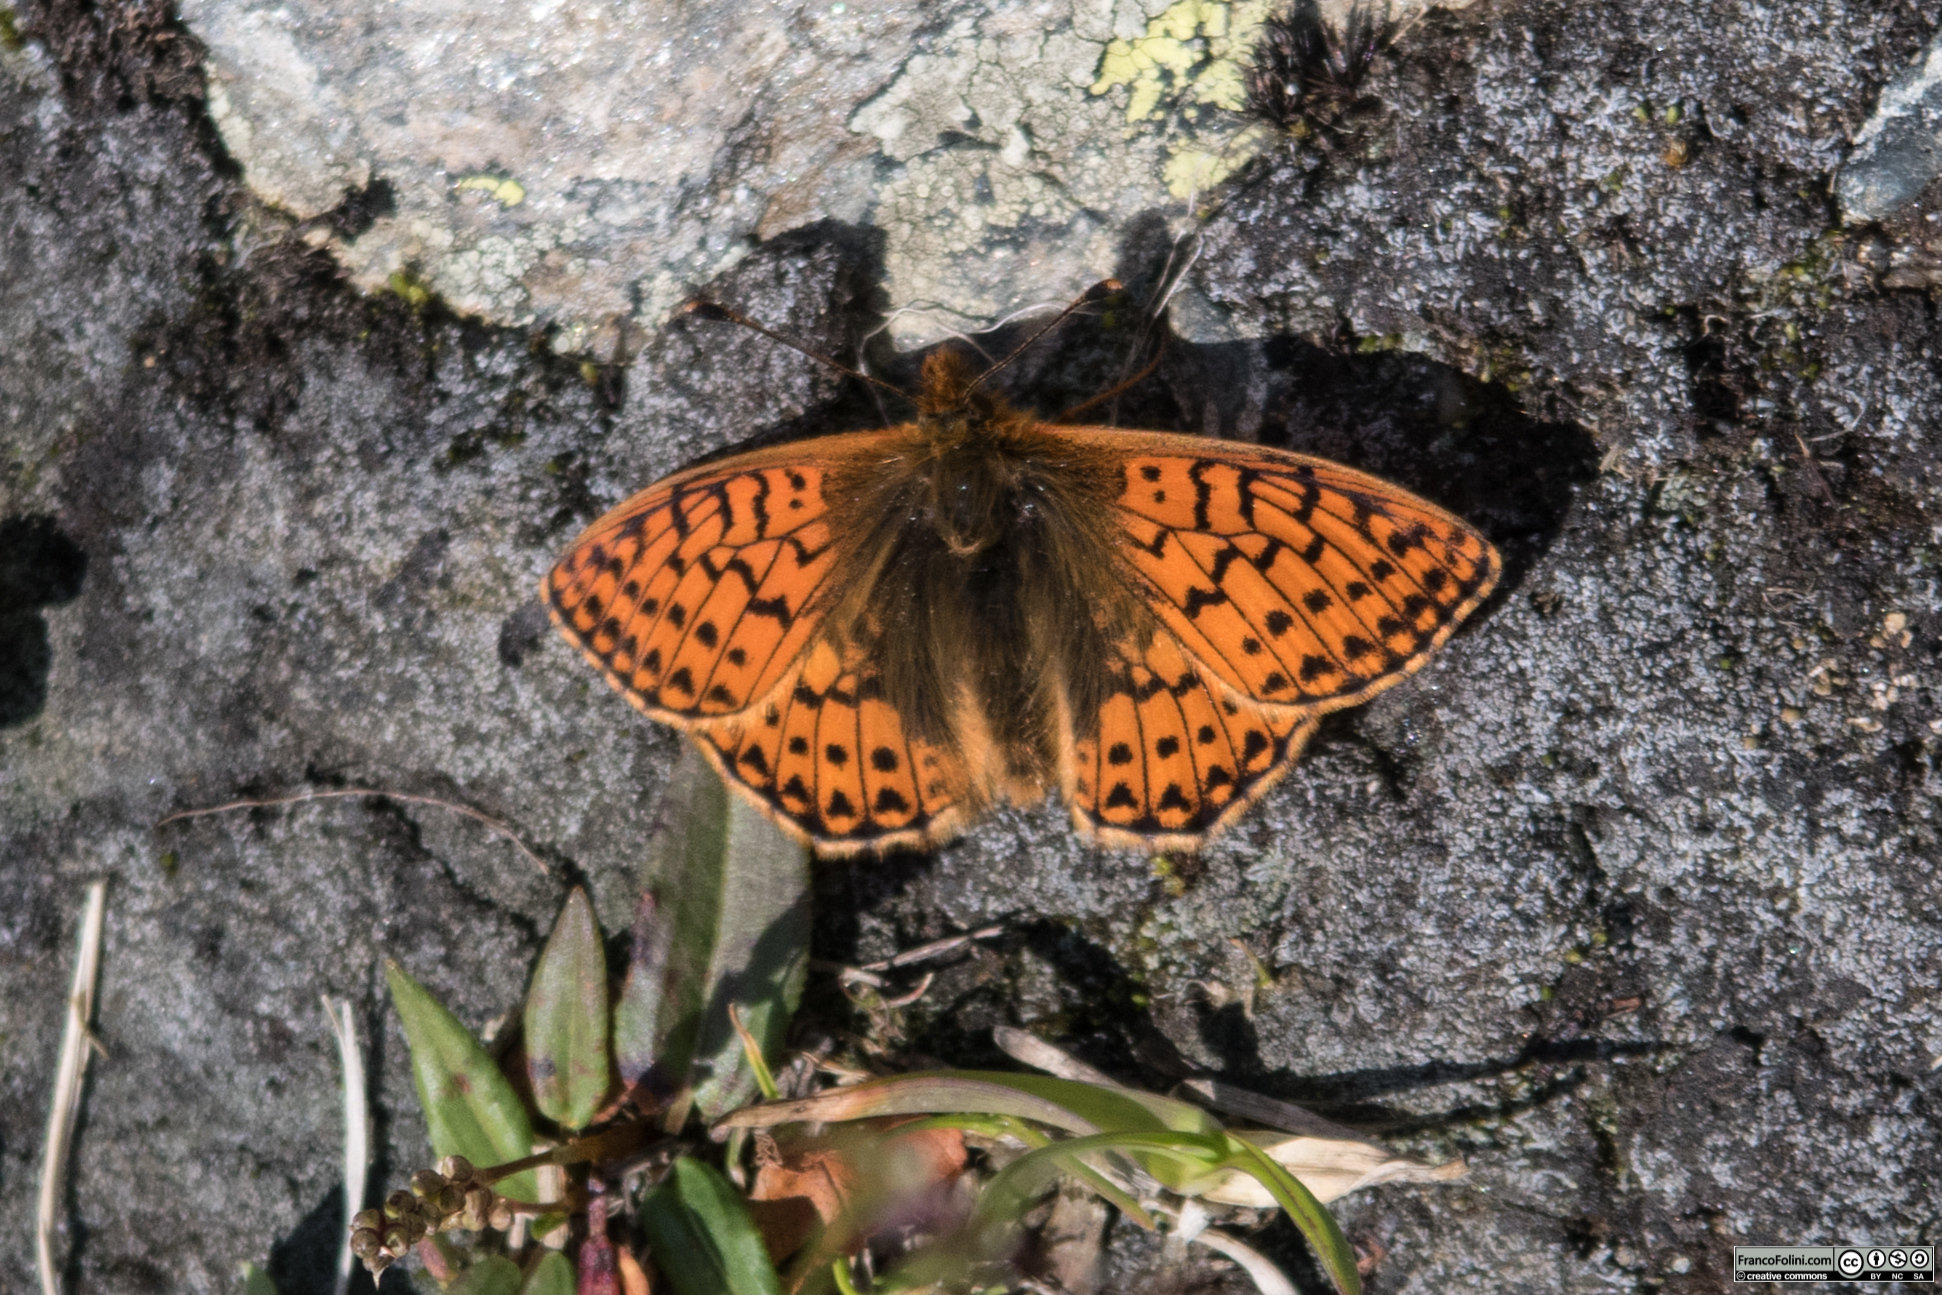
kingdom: Animalia
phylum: Arthropoda
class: Insecta
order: Lepidoptera
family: Nymphalidae
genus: Boloria
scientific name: Boloria pales
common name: Shepherd's fritillary
